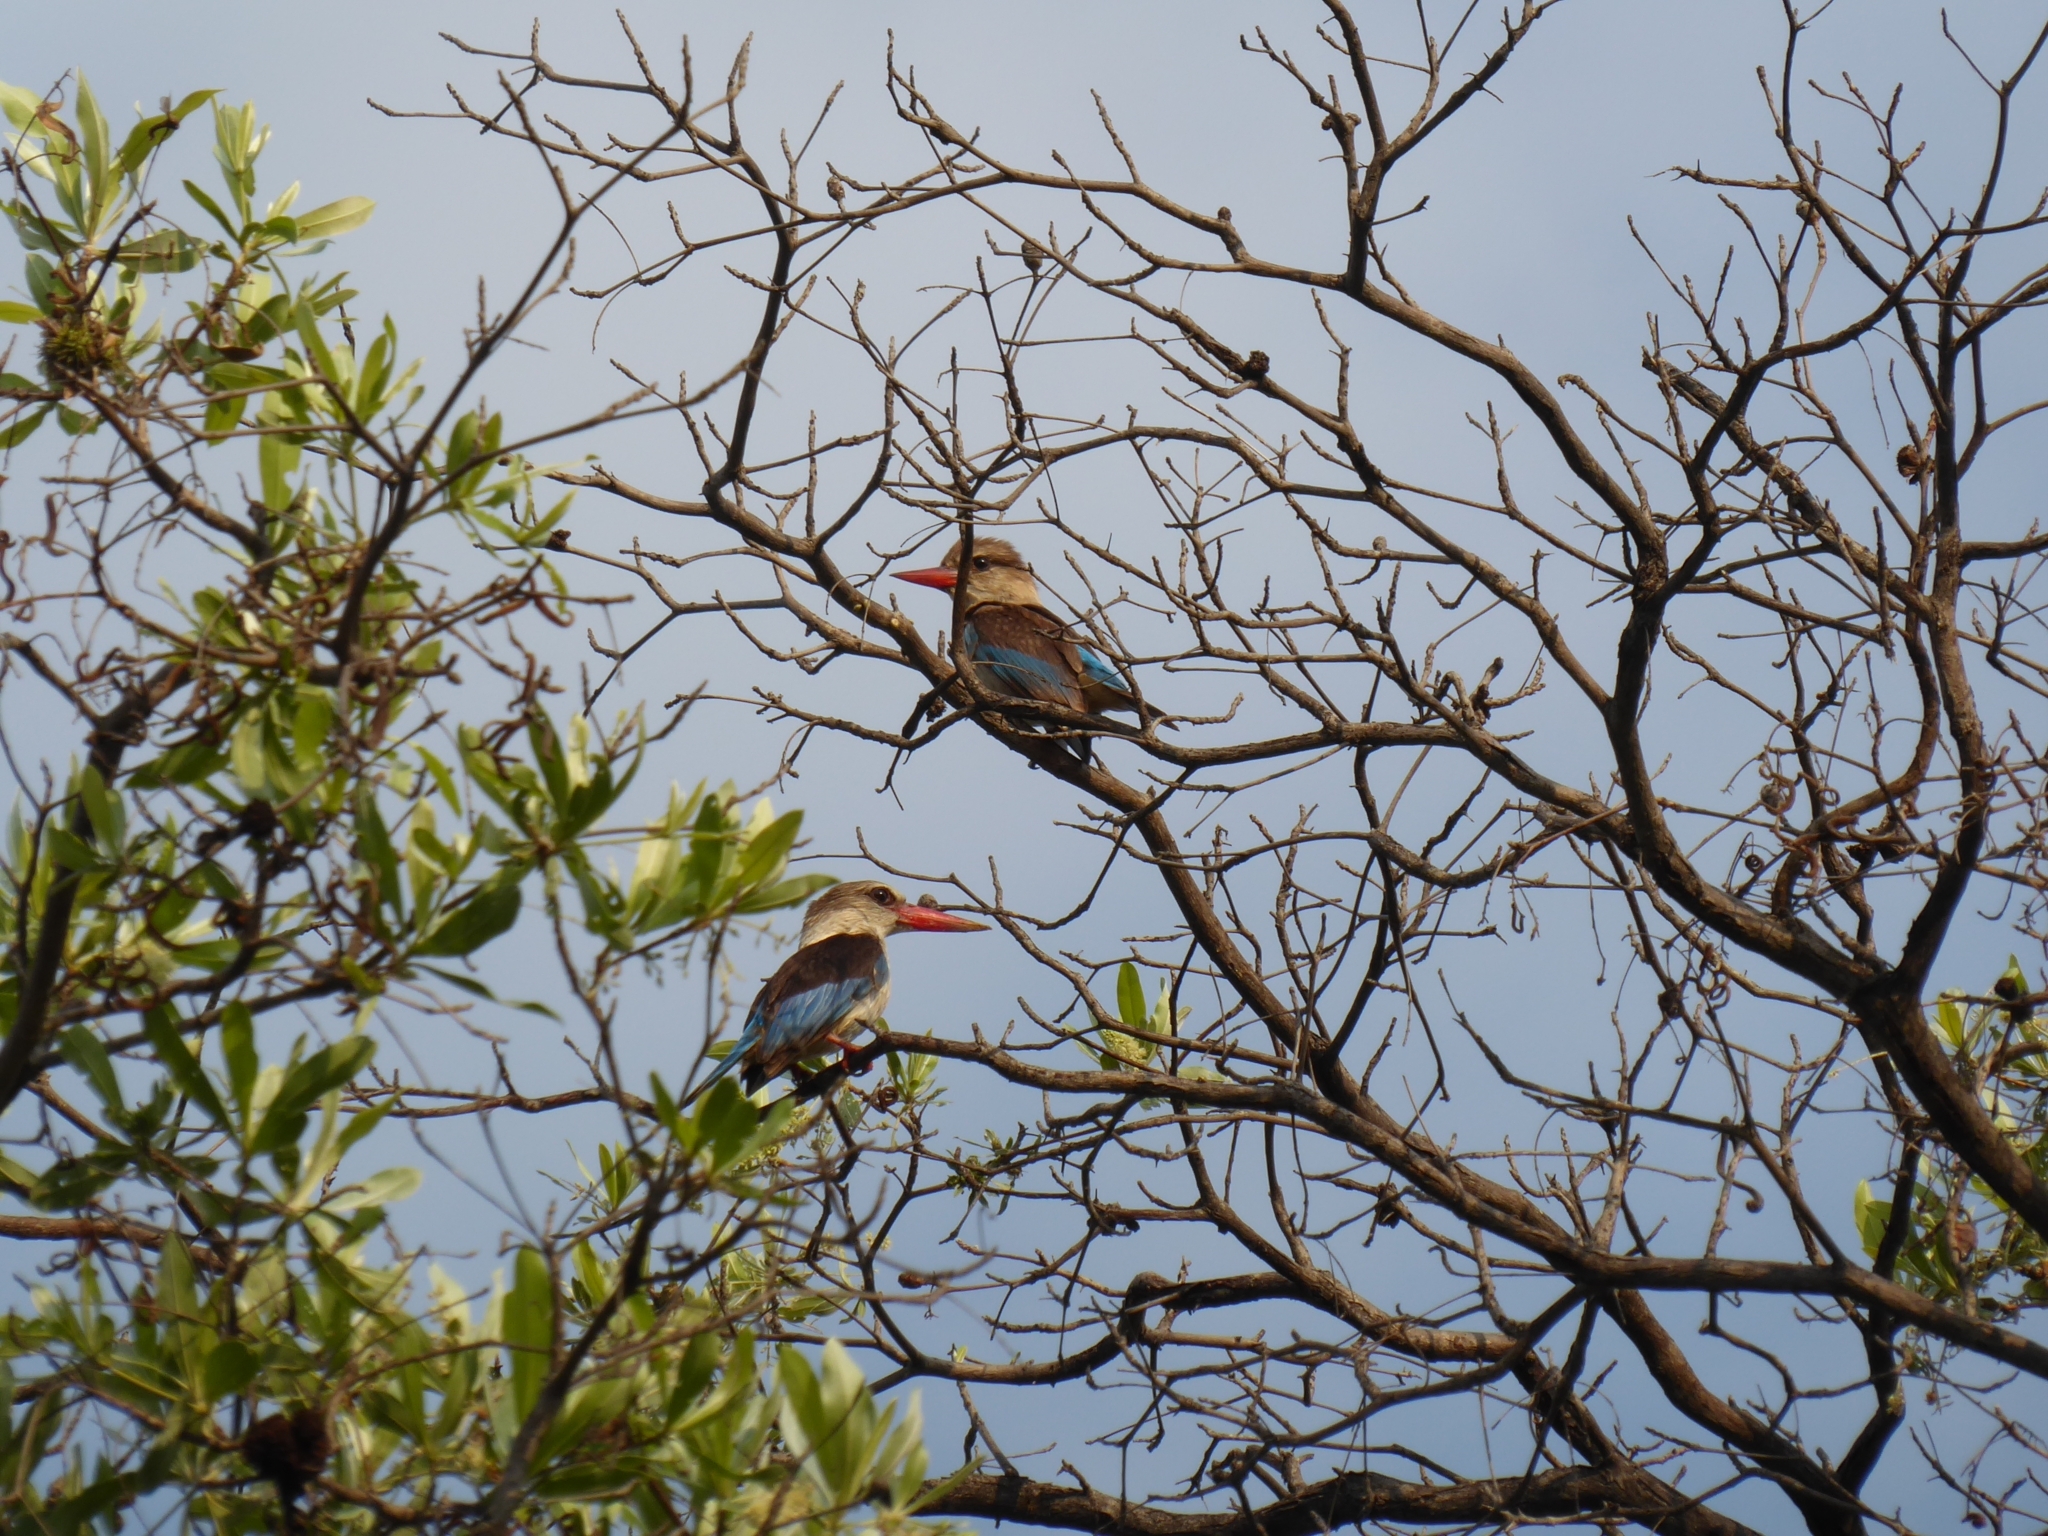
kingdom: Animalia
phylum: Chordata
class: Aves
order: Coraciiformes
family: Alcedinidae
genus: Halcyon
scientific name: Halcyon albiventris
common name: Brown-hooded kingfisher
